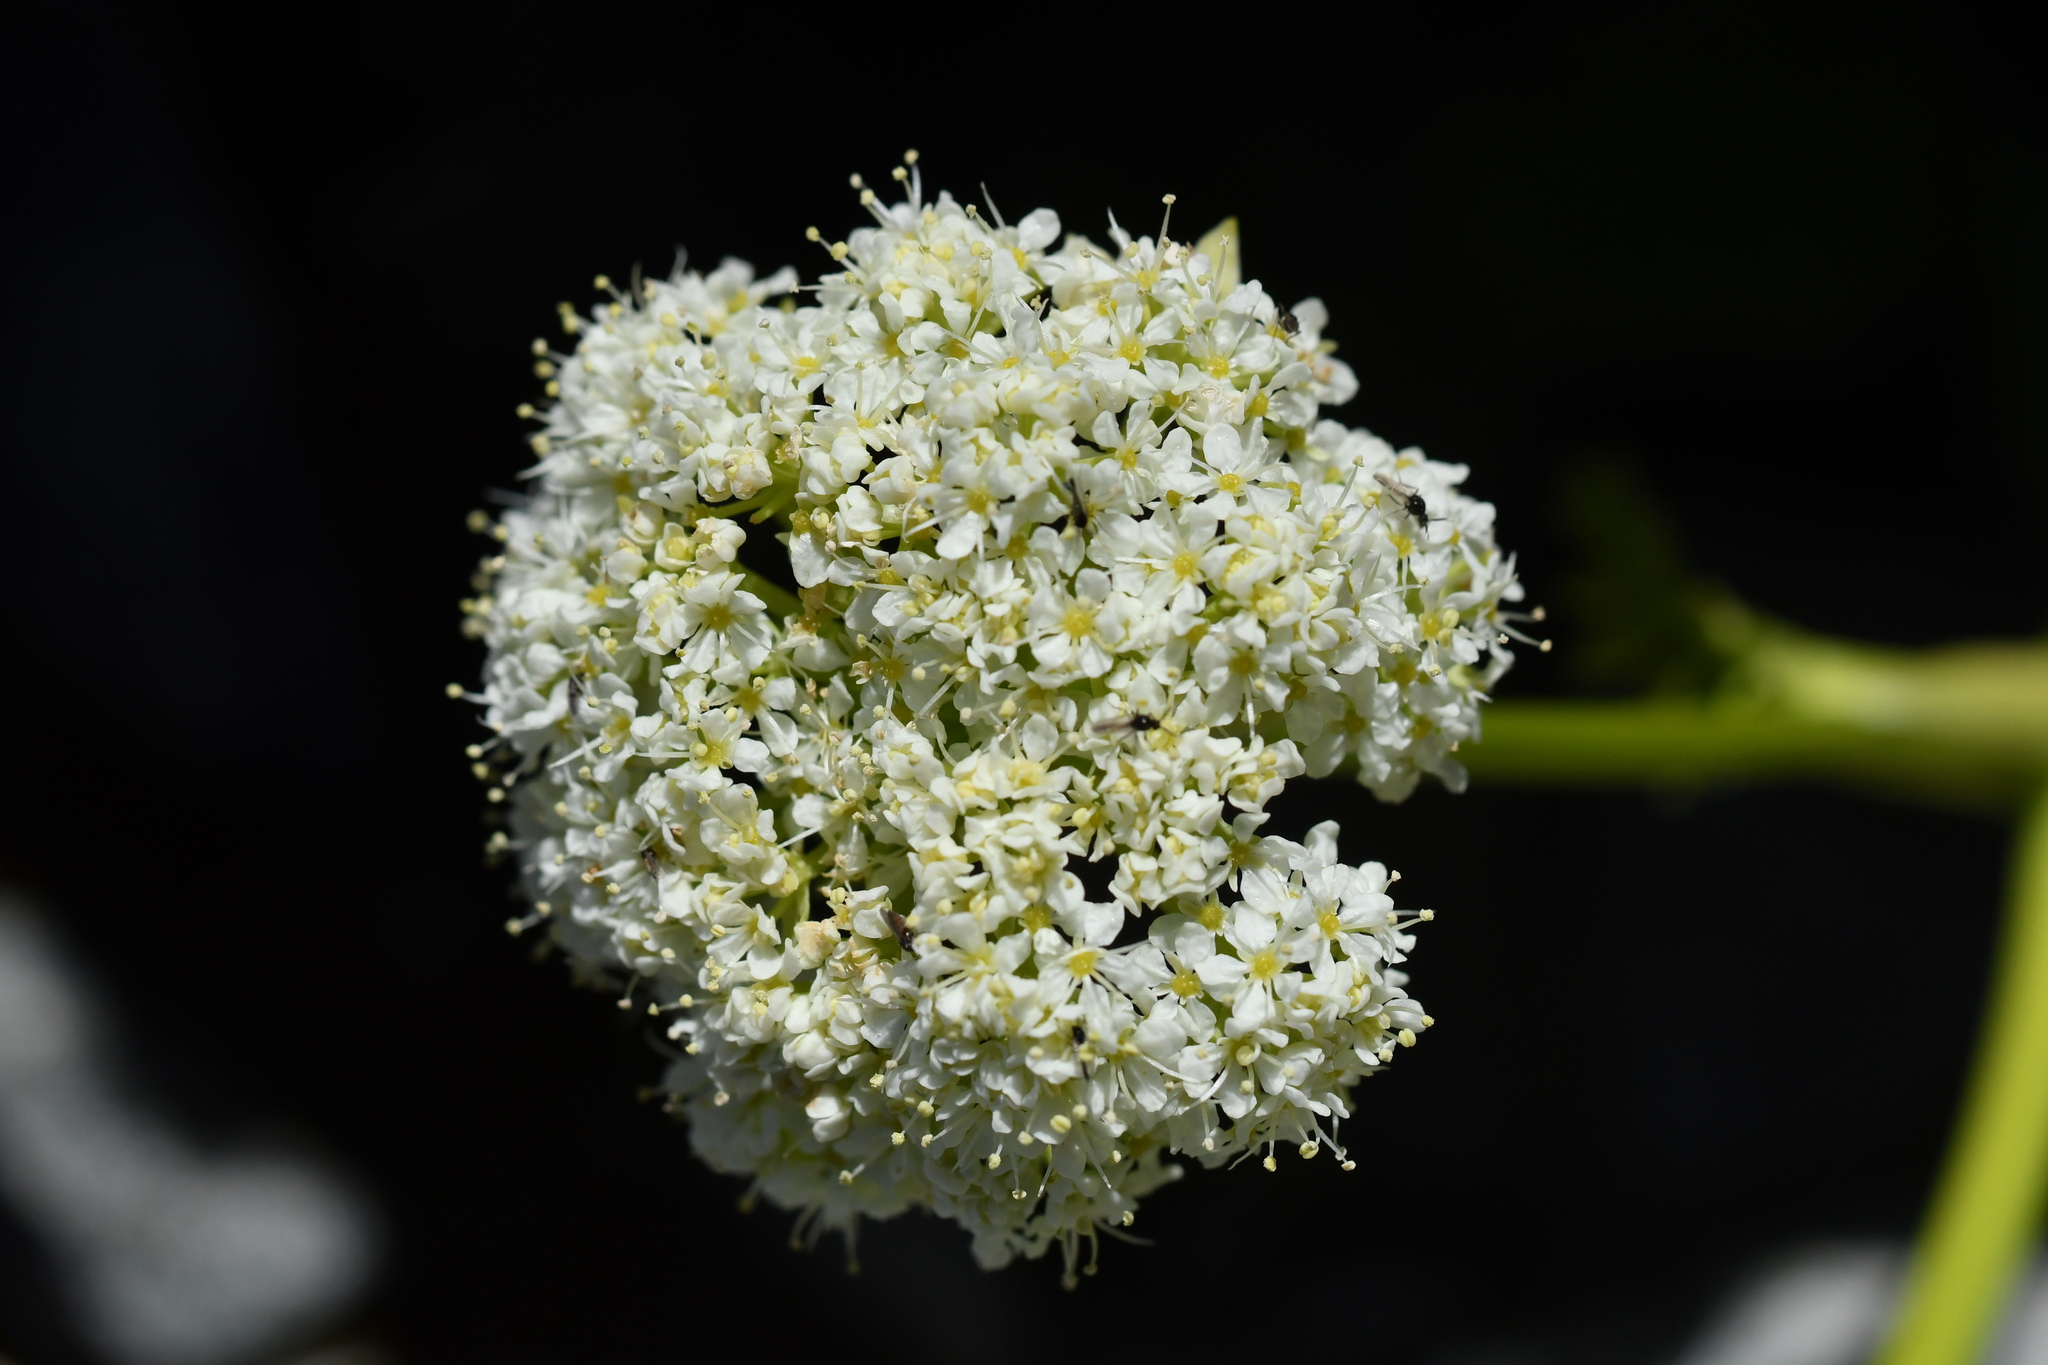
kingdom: Plantae
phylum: Tracheophyta
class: Magnoliopsida
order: Apiales
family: Apiaceae
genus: Anisotome
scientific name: Anisotome pilifera
